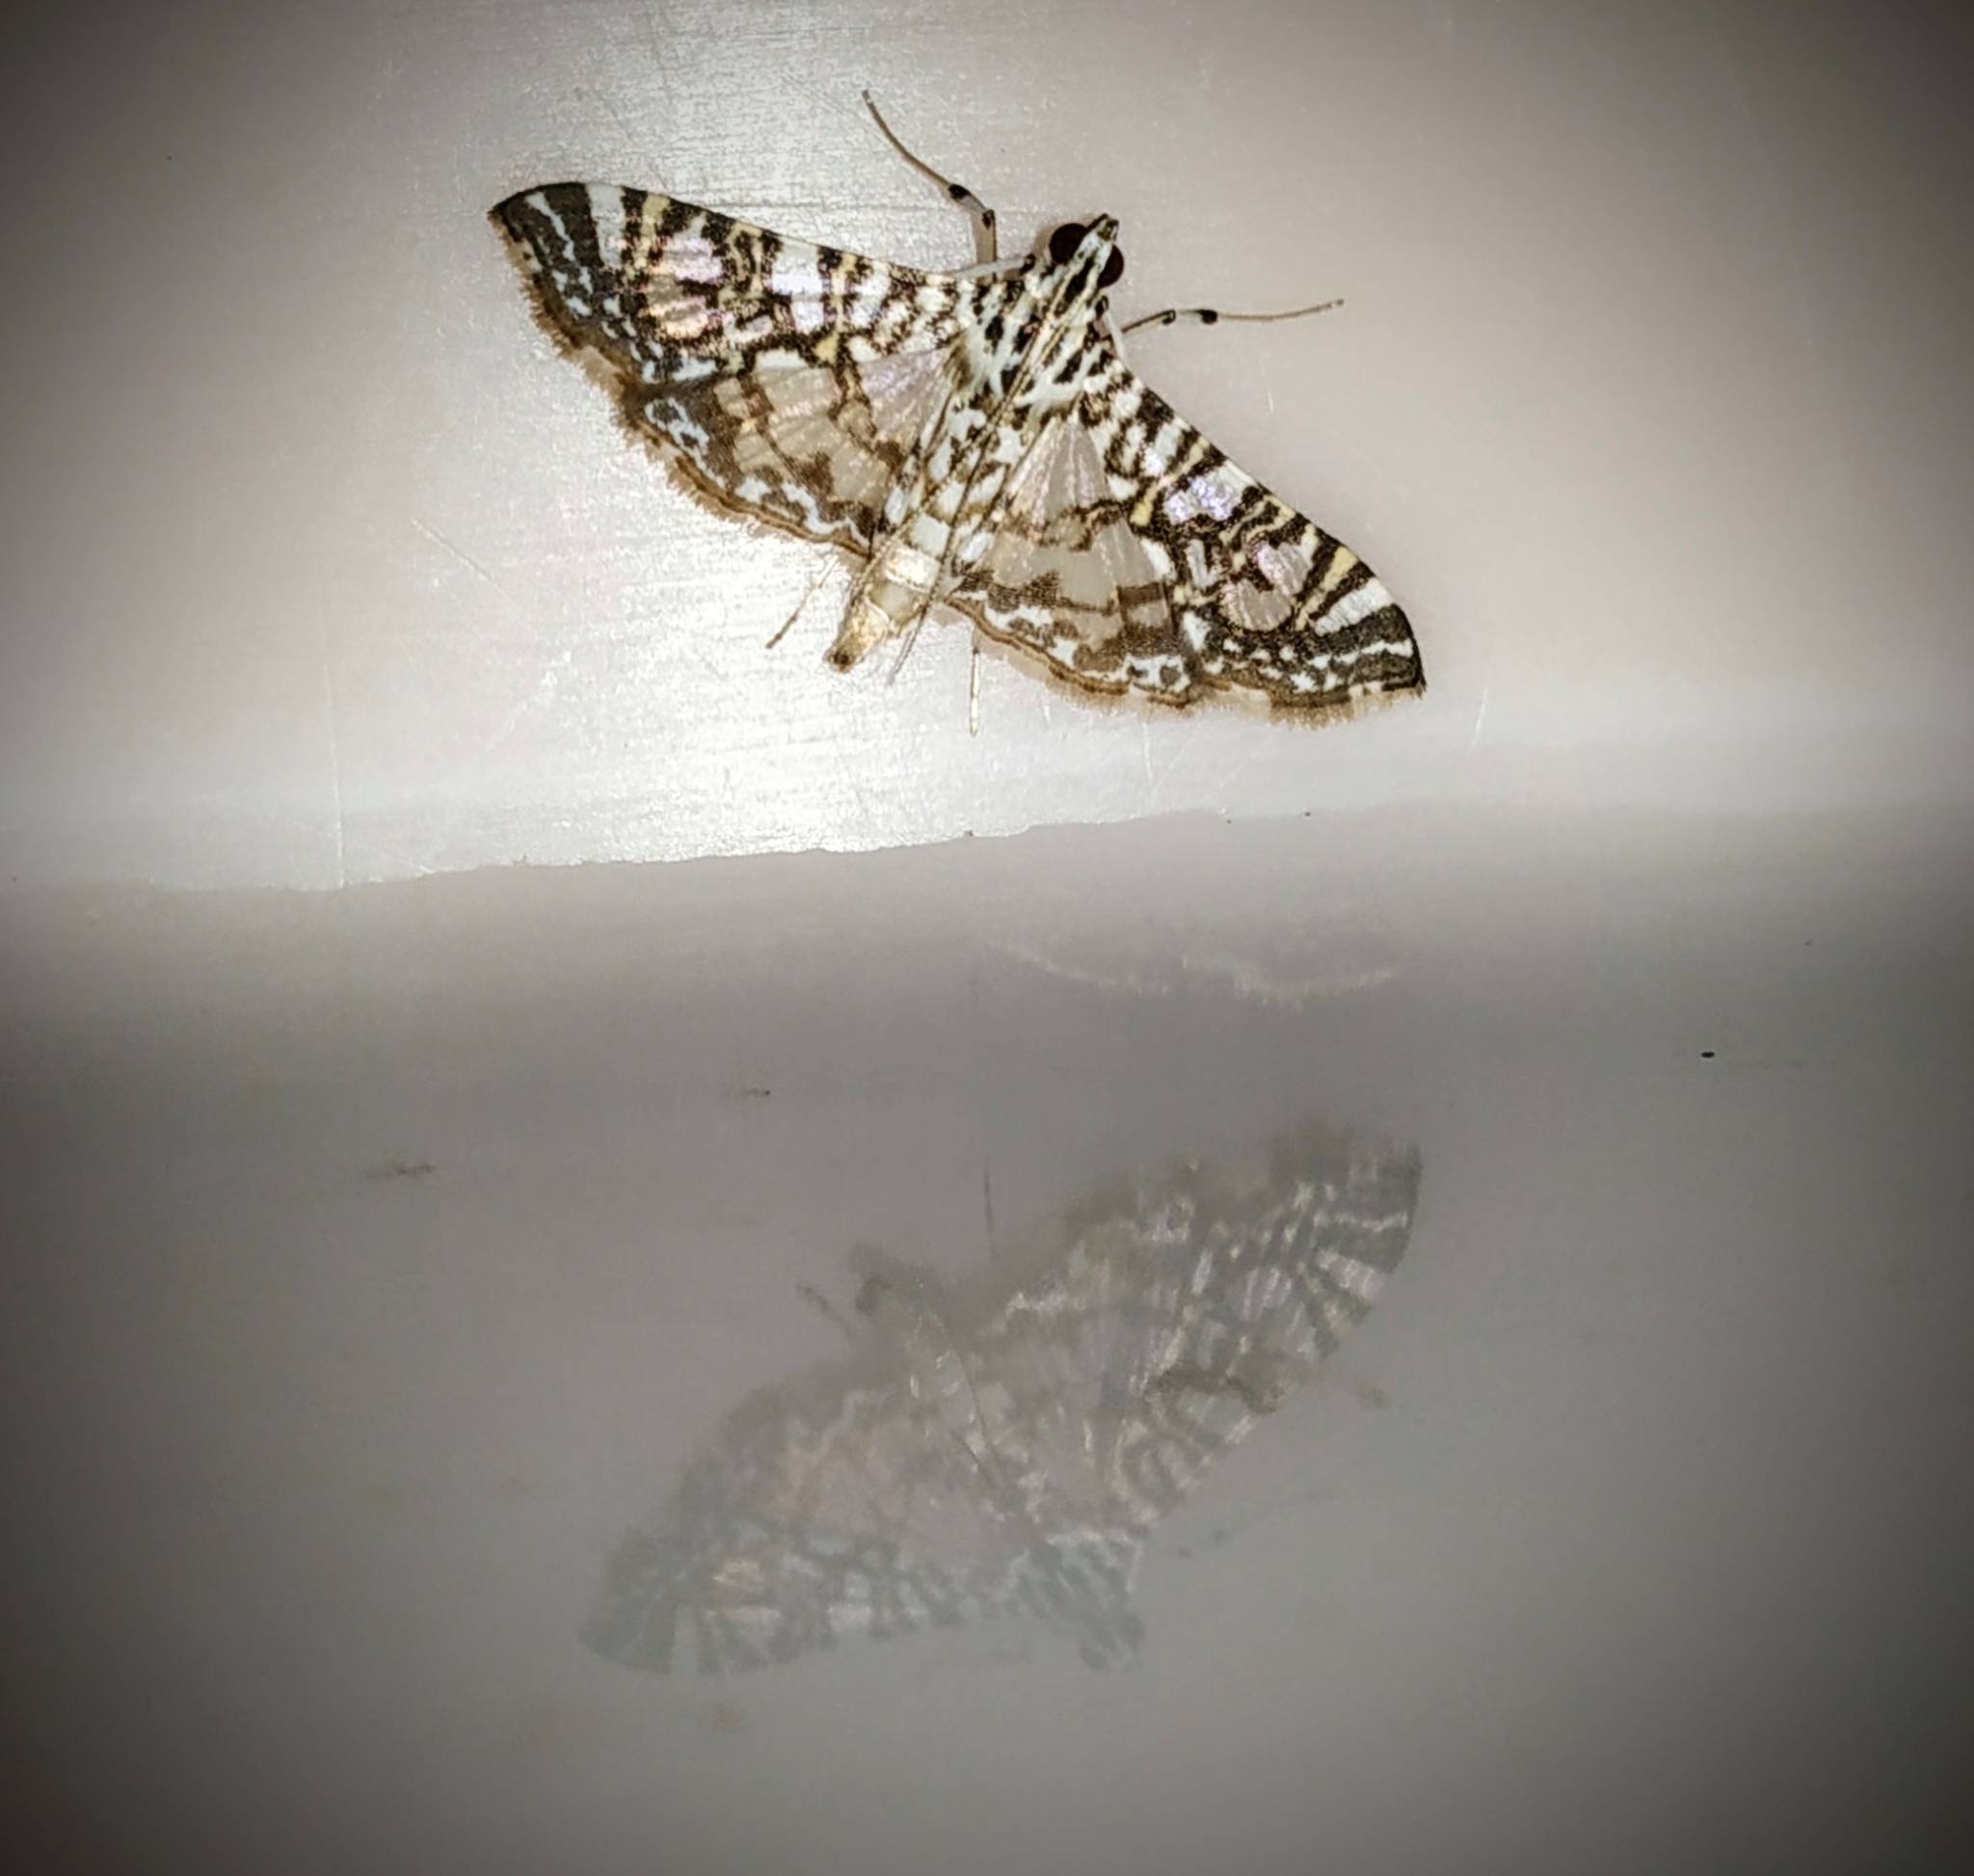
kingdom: Animalia
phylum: Arthropoda
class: Insecta
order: Lepidoptera
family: Crambidae
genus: Glyphodes
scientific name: Glyphodes onychinalis
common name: Swan plant moth
